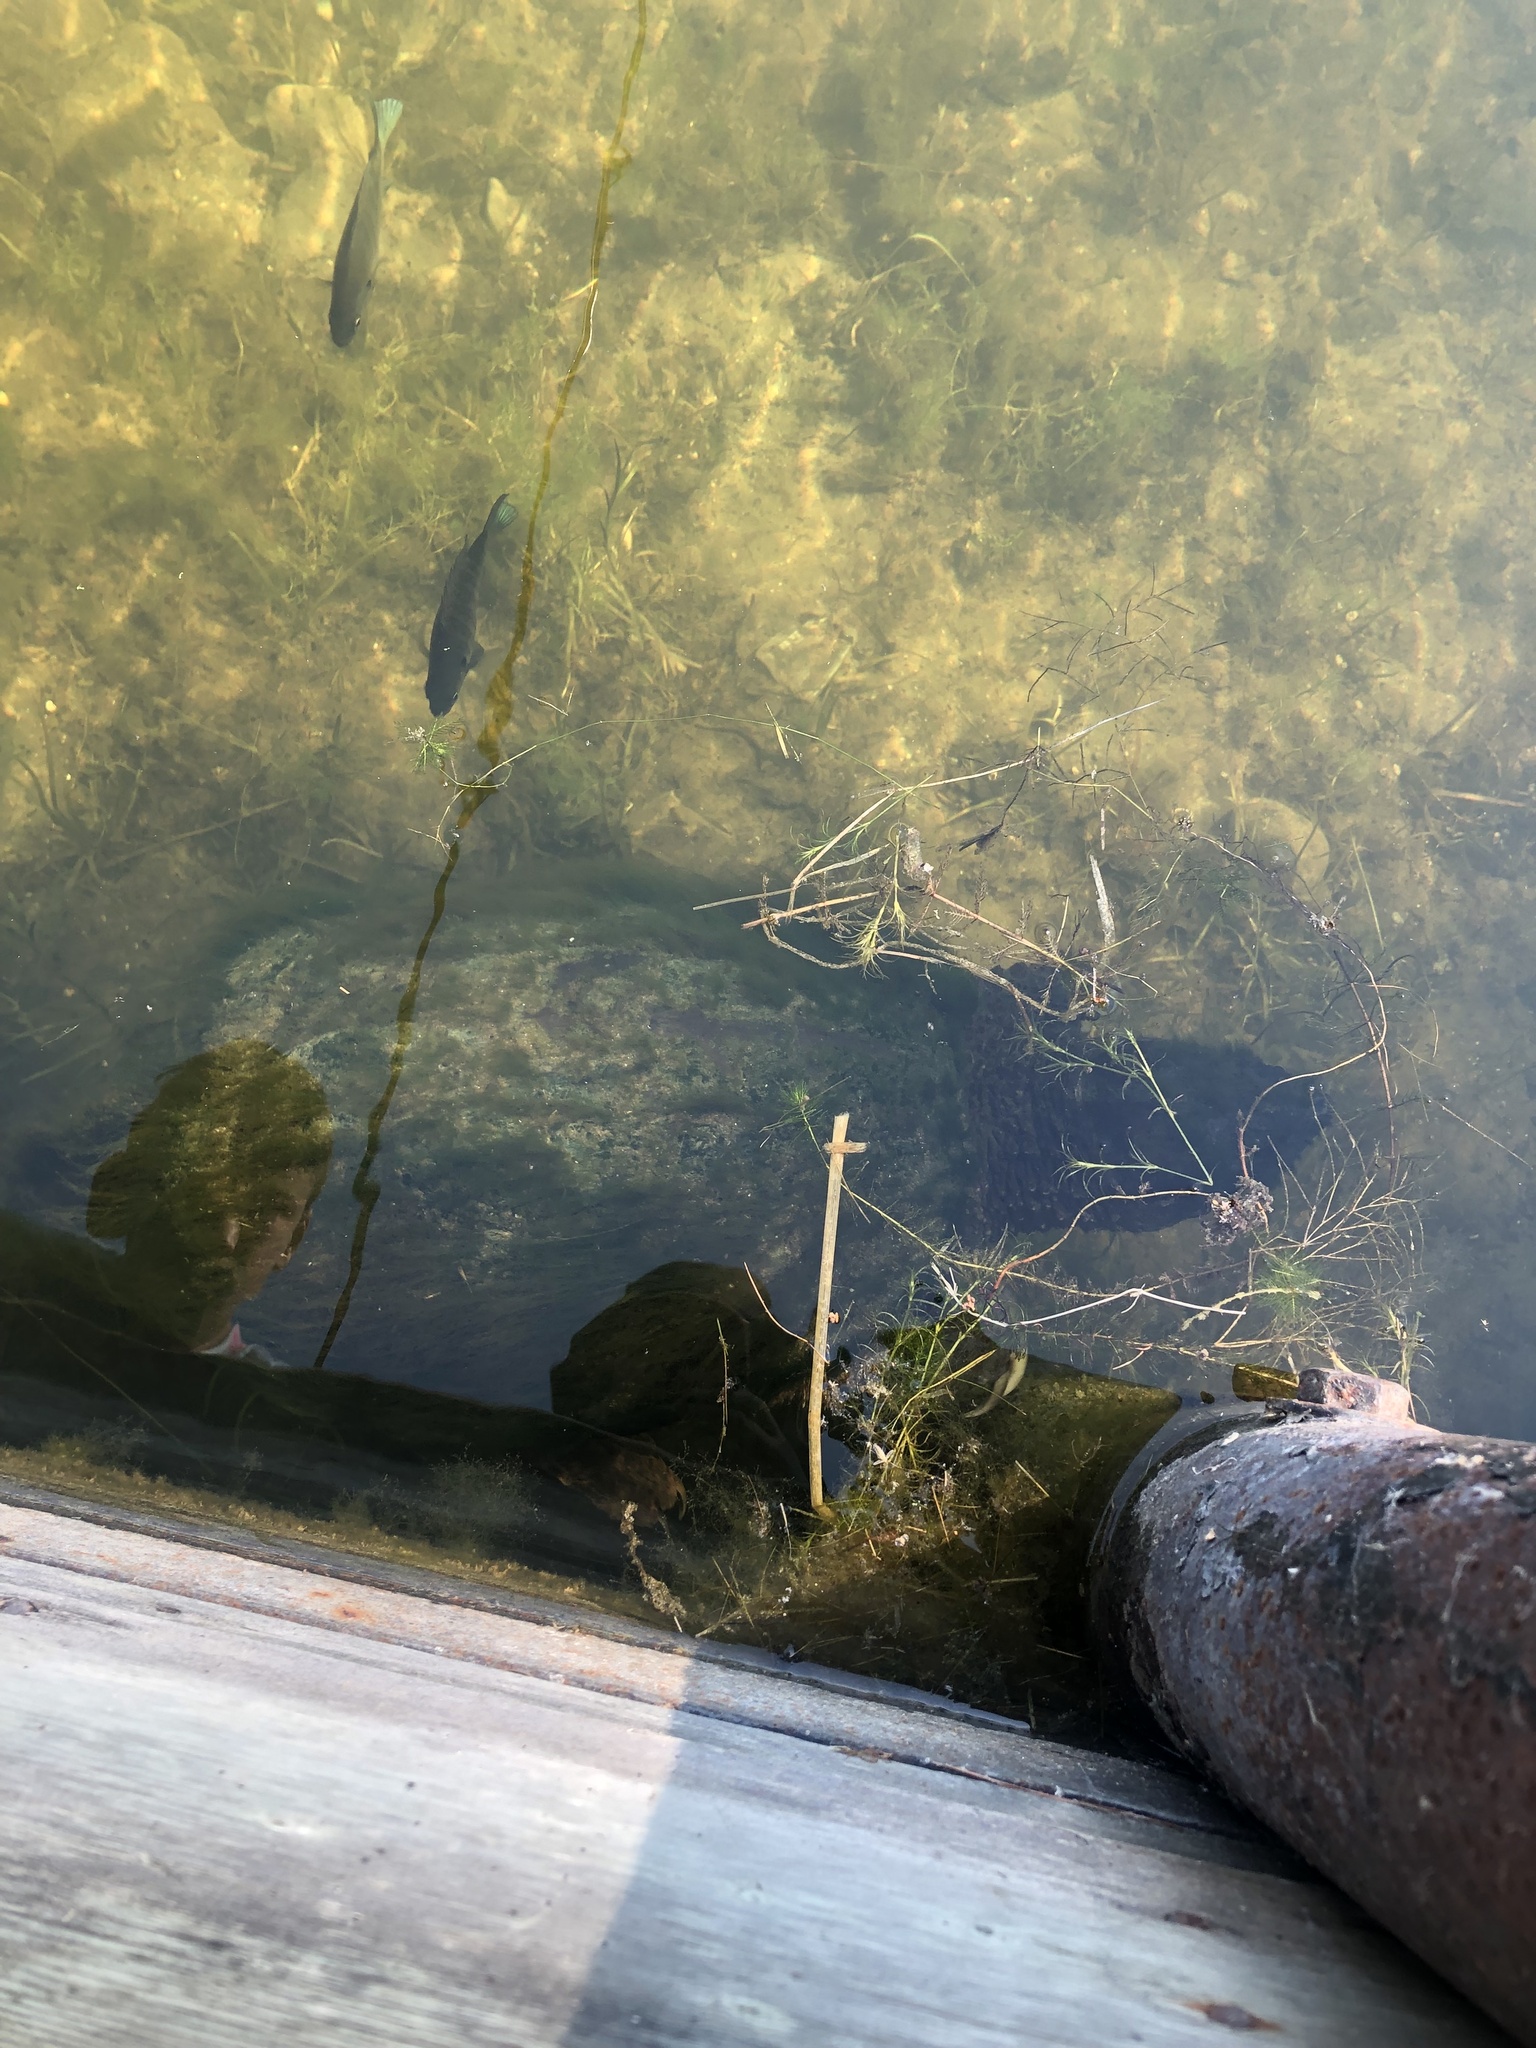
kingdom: Animalia
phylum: Chordata
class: Testudines
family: Chelydridae
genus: Chelydra
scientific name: Chelydra serpentina
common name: Common snapping turtle
